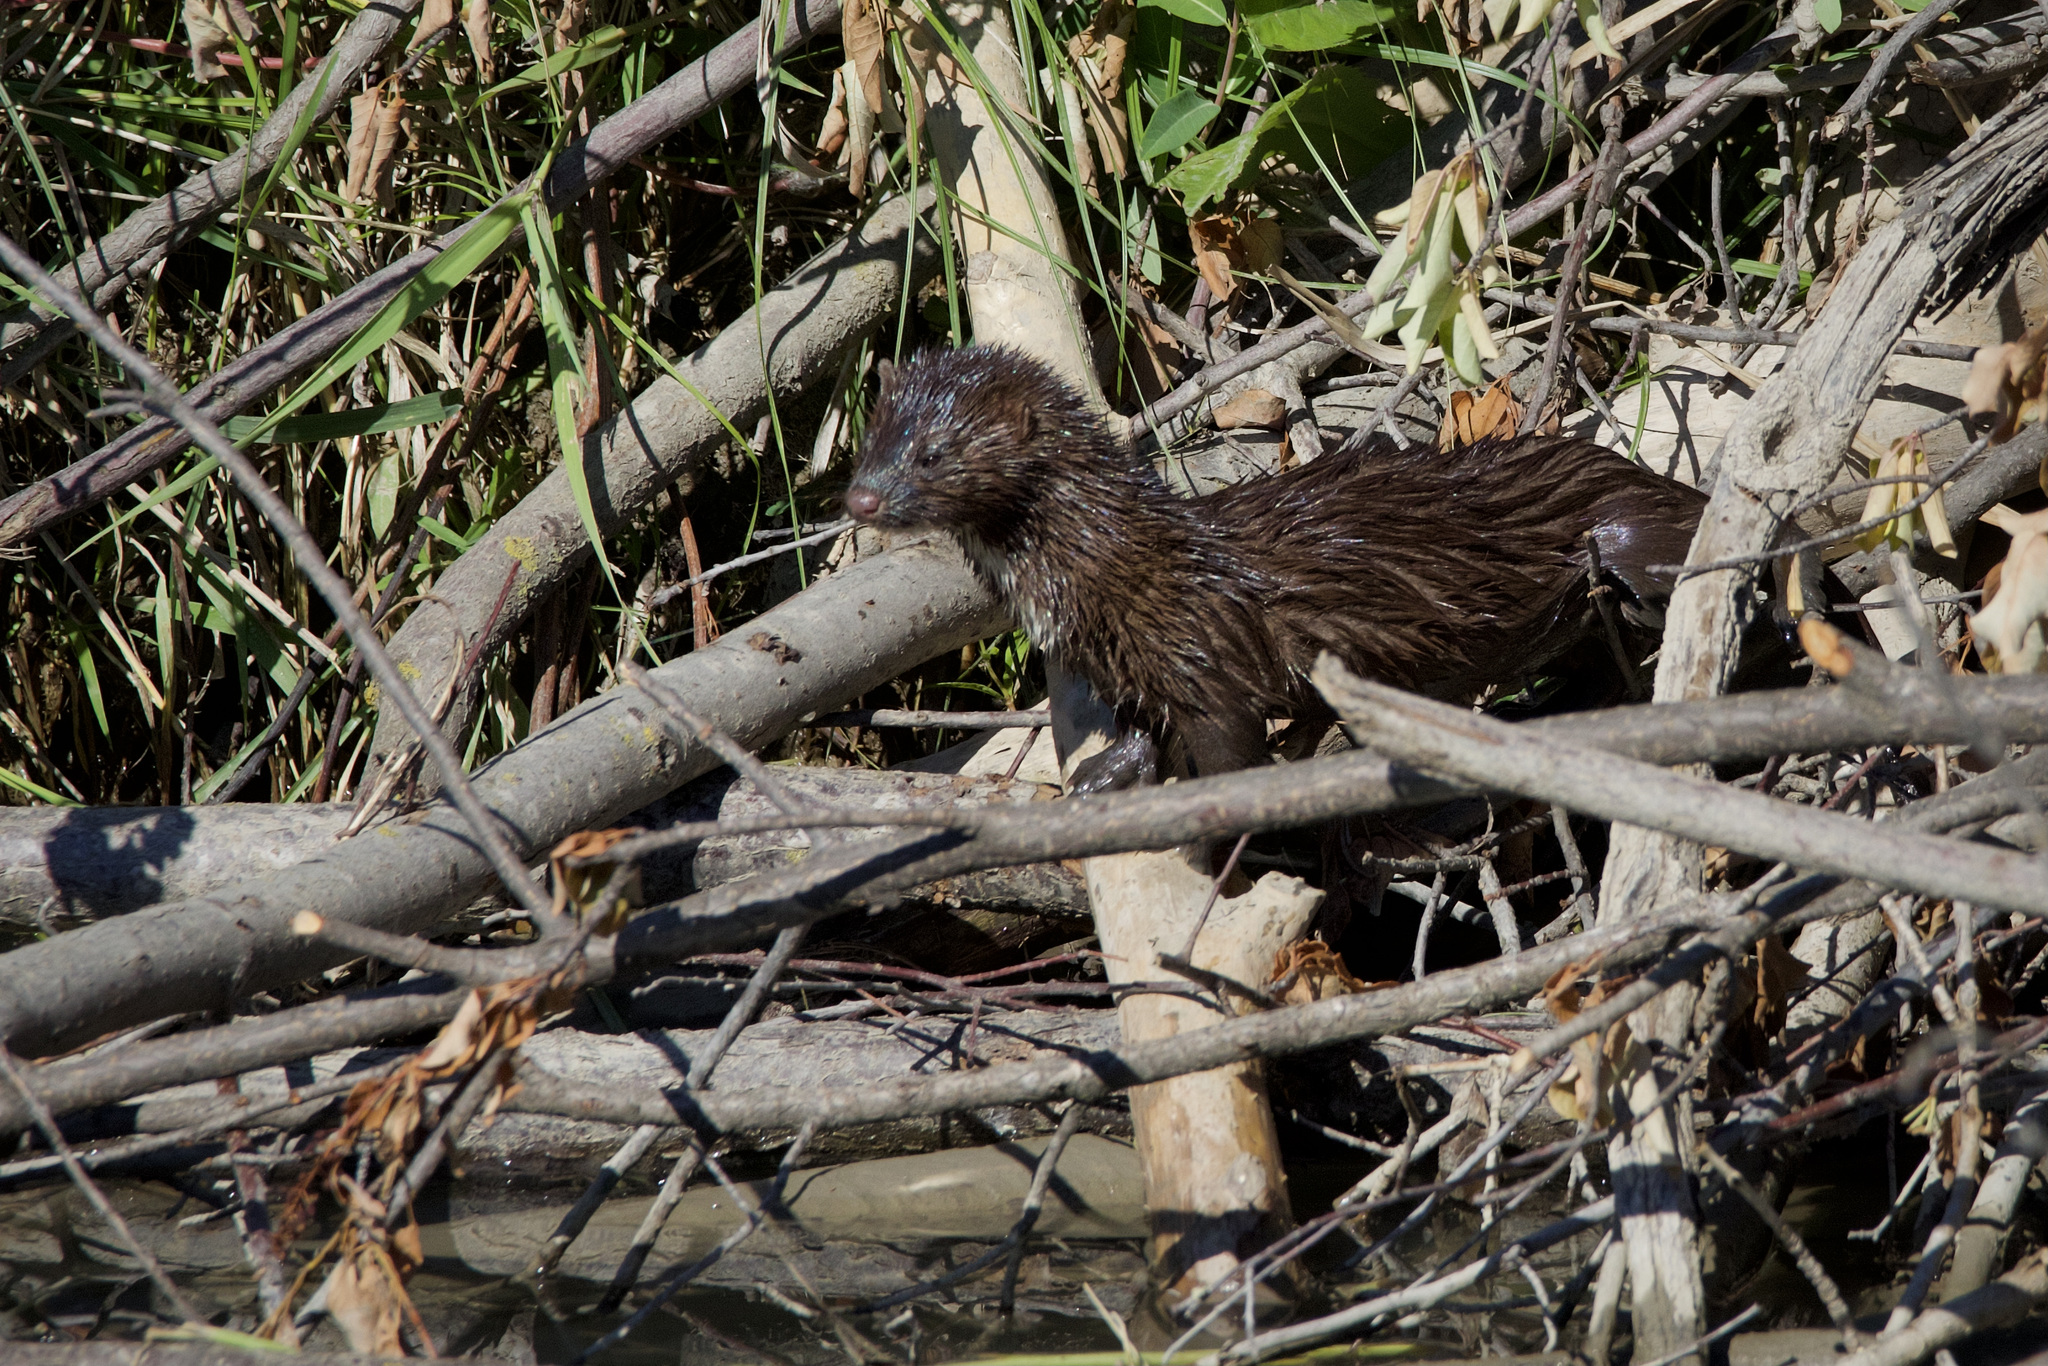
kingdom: Animalia
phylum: Chordata
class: Mammalia
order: Carnivora
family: Mustelidae
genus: Mustela
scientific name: Mustela
